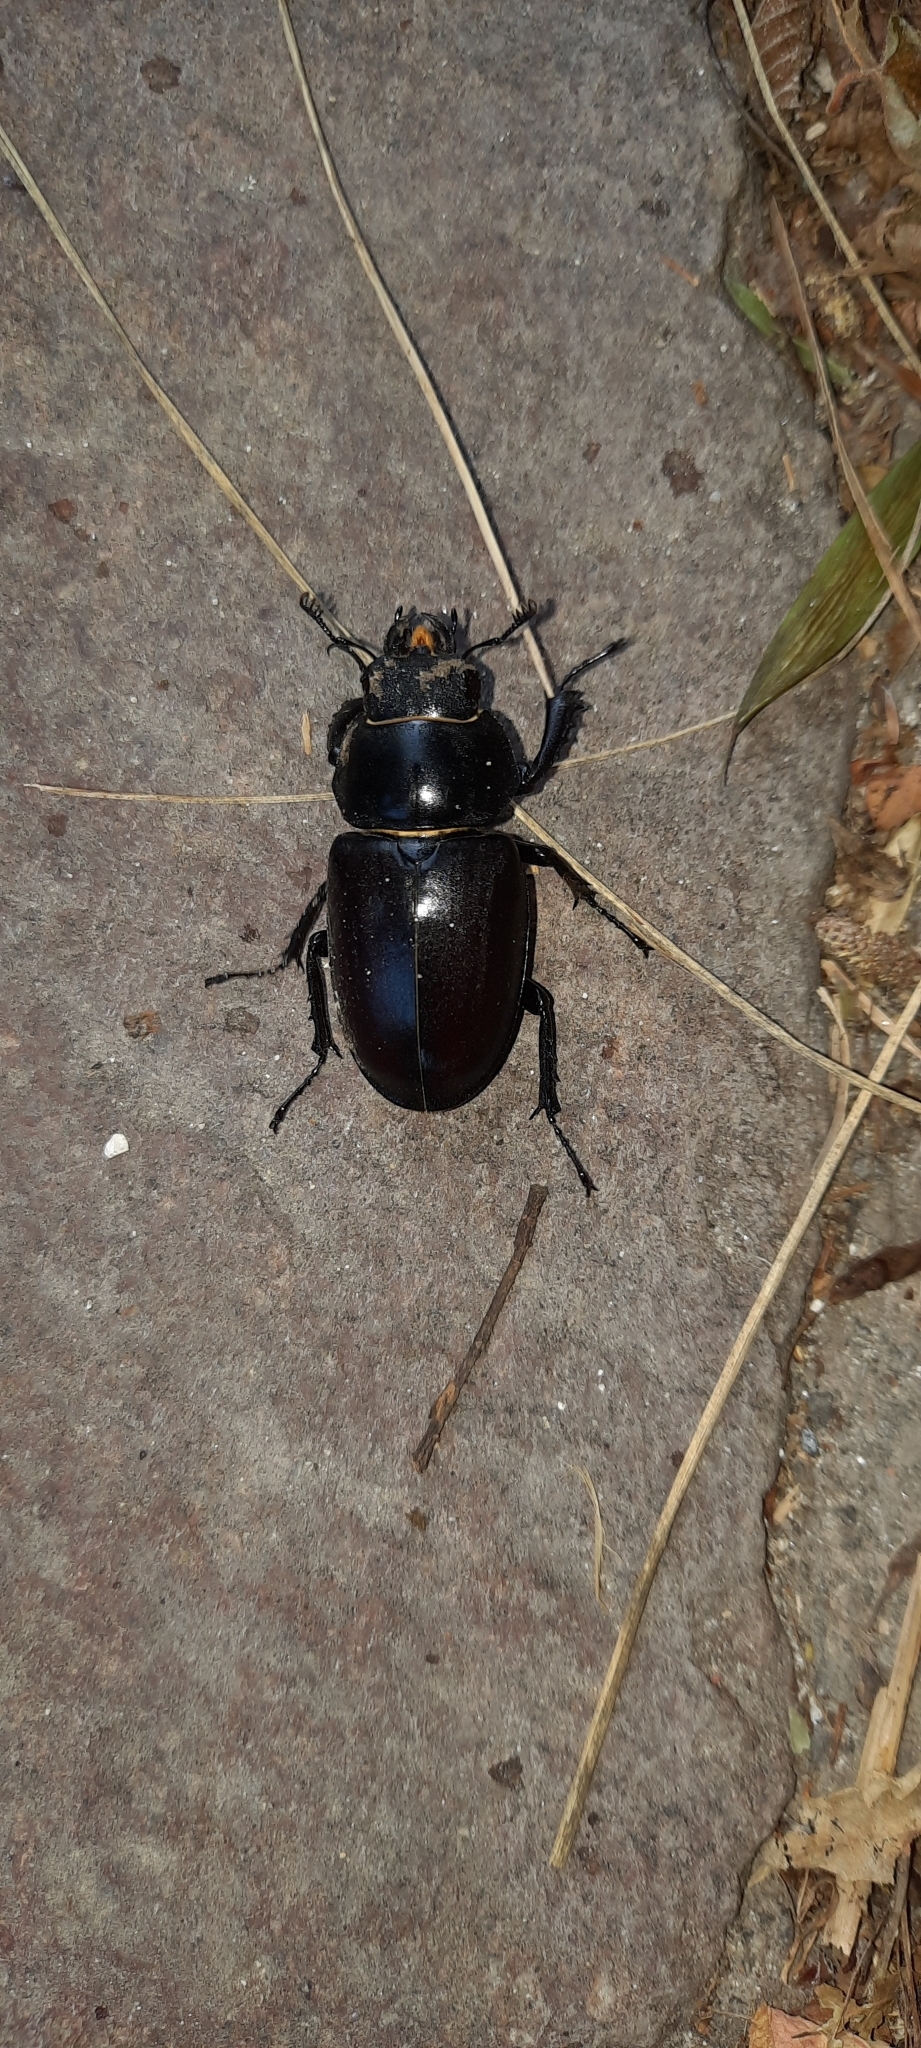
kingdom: Animalia
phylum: Arthropoda
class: Insecta
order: Coleoptera
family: Lucanidae
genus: Lucanus
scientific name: Lucanus cervus
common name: Stag beetle
